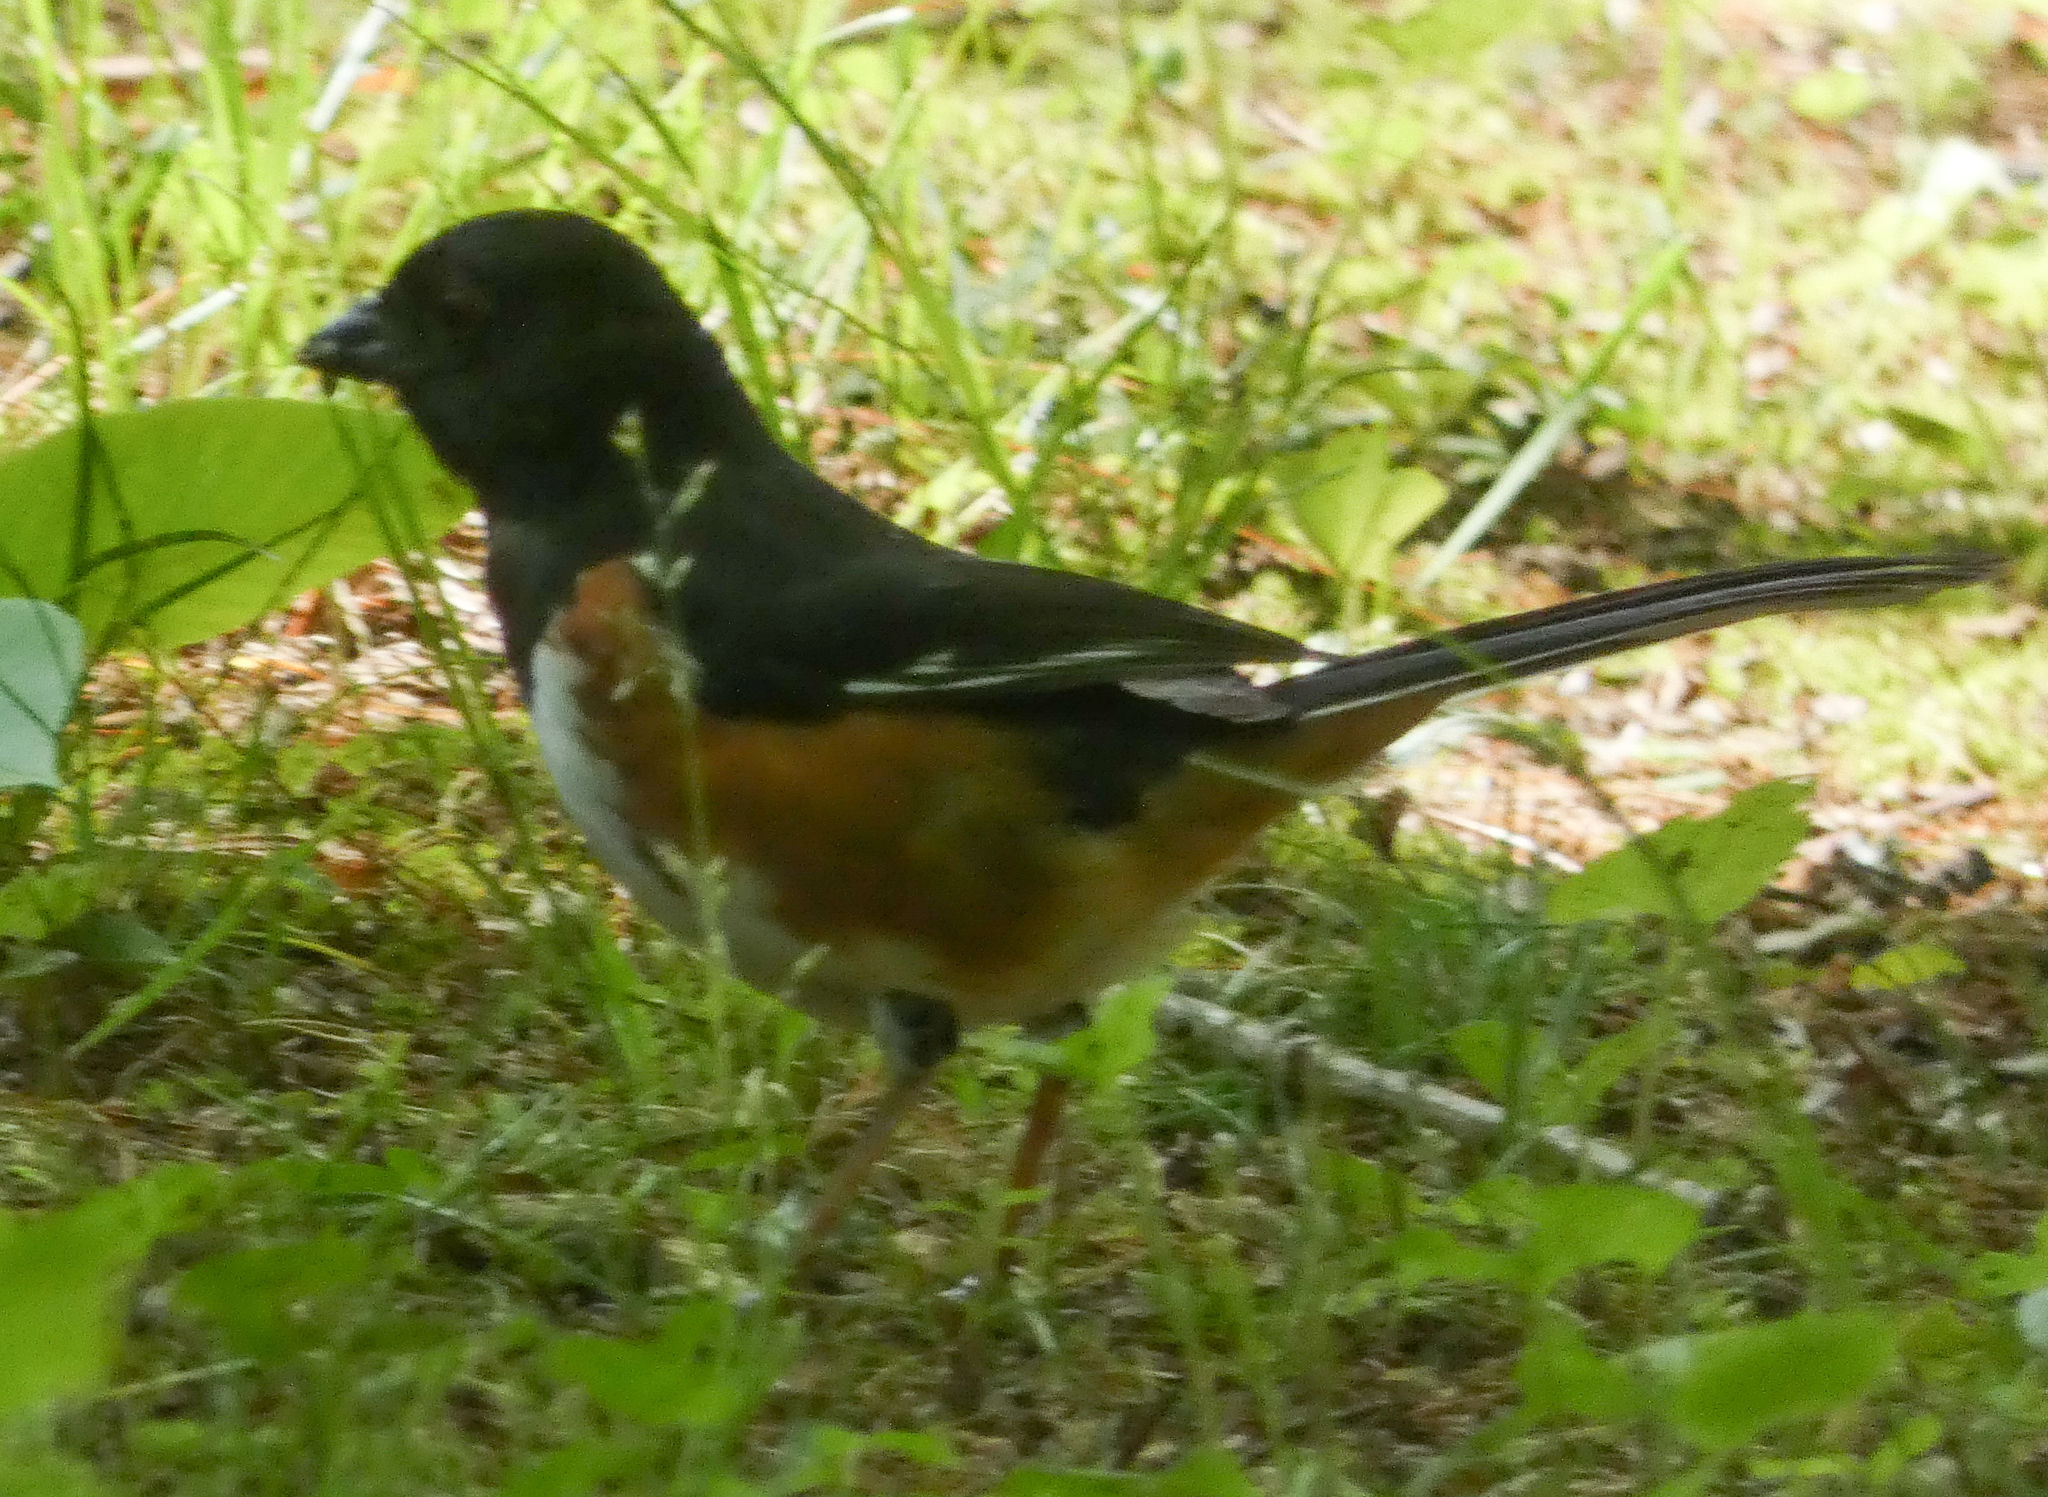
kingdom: Animalia
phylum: Chordata
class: Aves
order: Passeriformes
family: Passerellidae
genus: Pipilo
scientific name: Pipilo erythrophthalmus
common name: Eastern towhee
